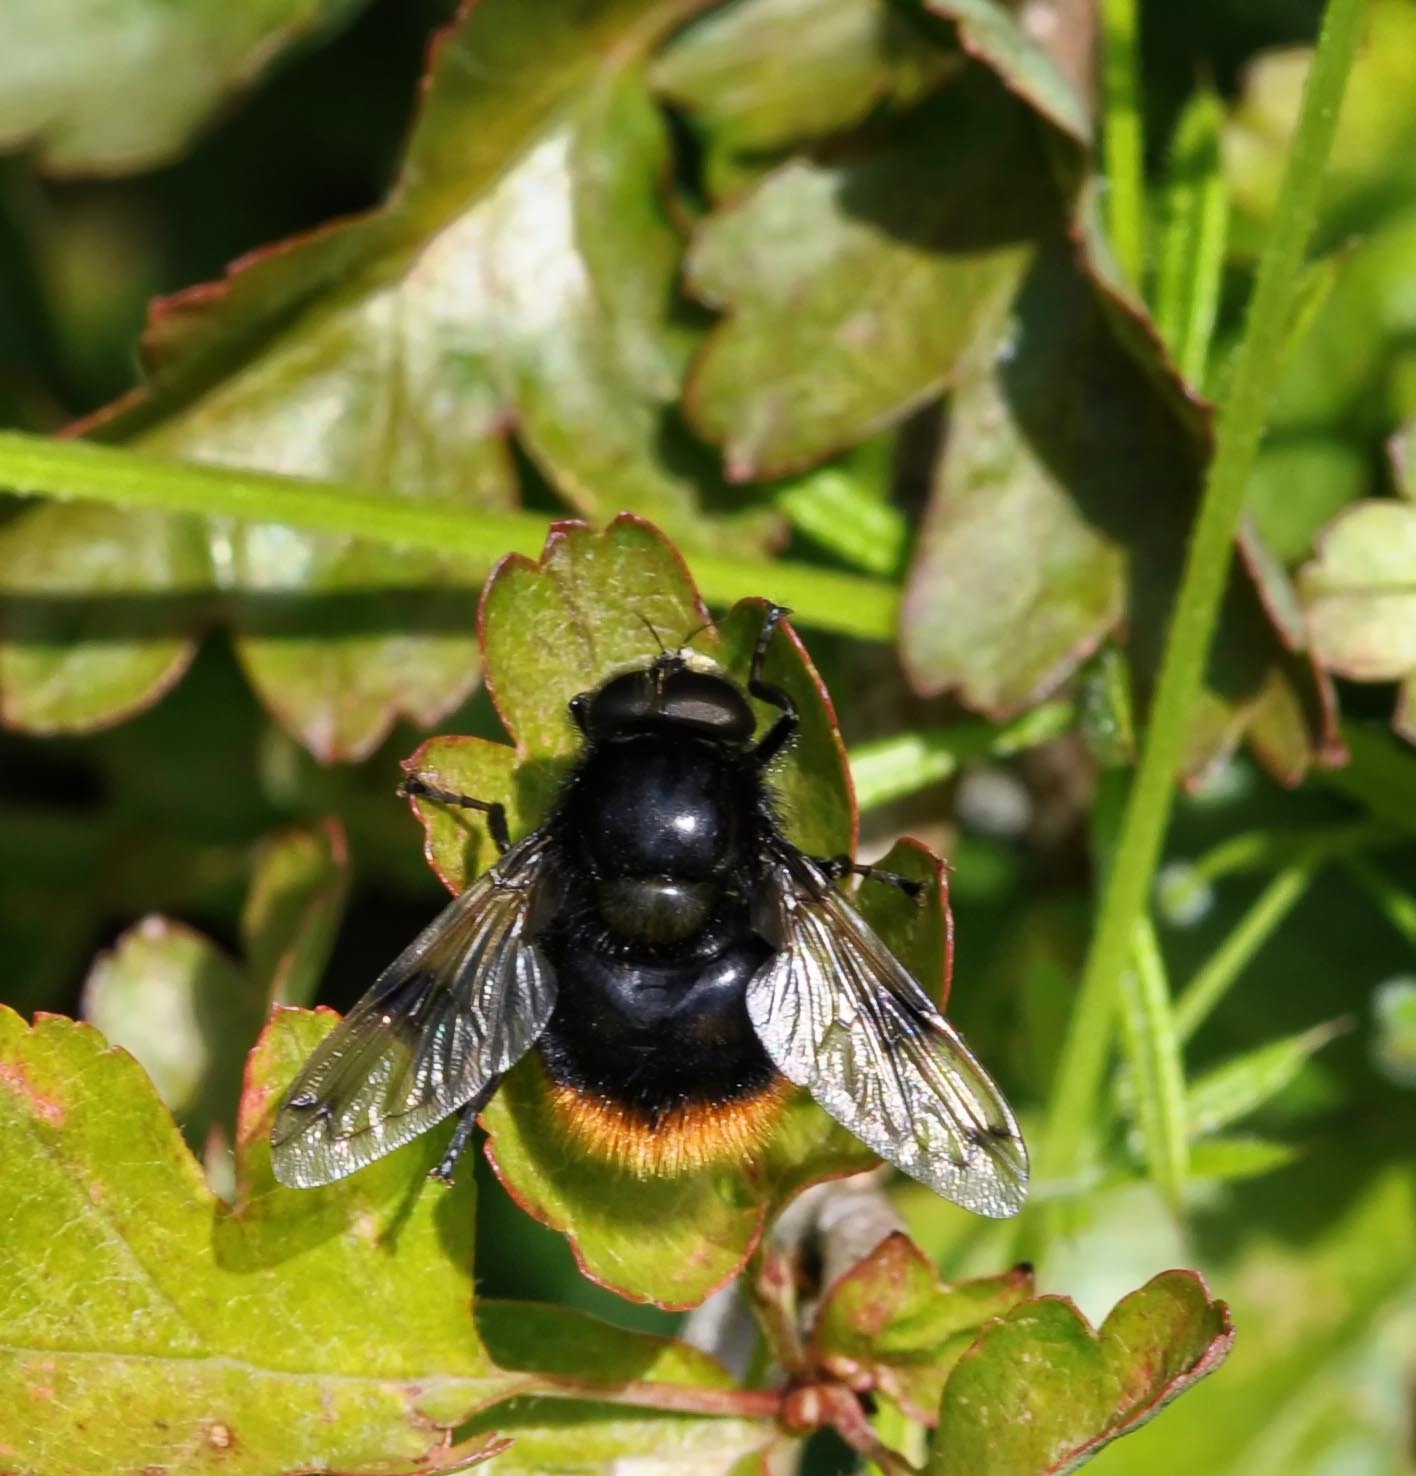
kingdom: Animalia
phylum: Arthropoda
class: Insecta
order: Diptera
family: Syrphidae
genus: Volucella
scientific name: Volucella bombylans
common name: Bumble bee hover fly
